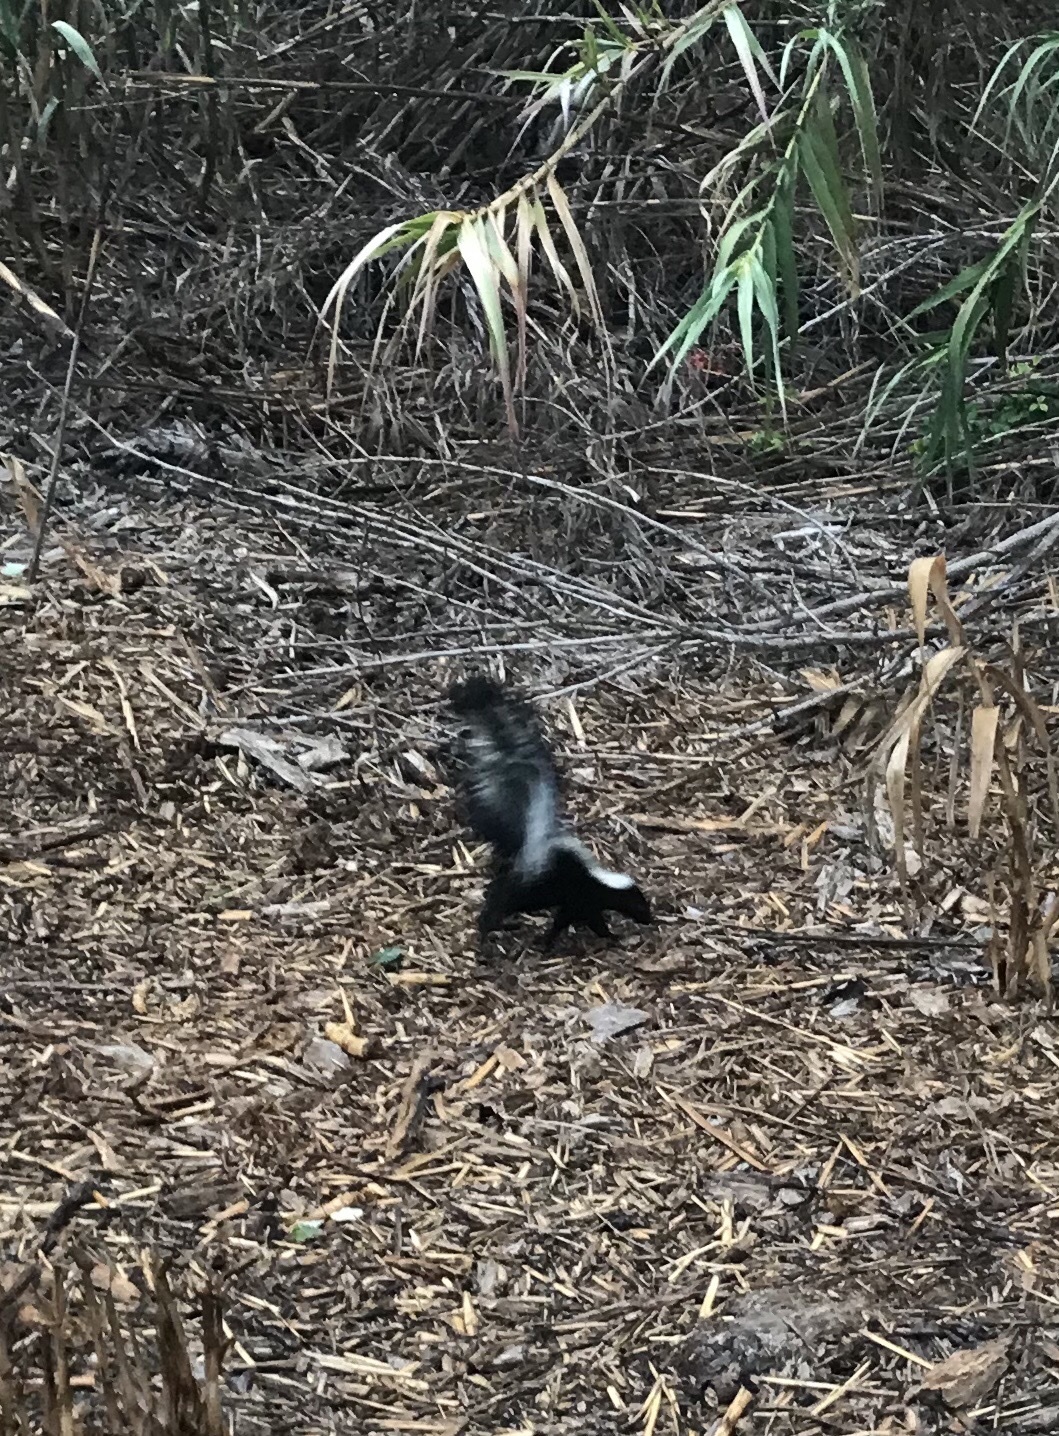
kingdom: Animalia
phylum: Chordata
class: Mammalia
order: Carnivora
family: Mephitidae
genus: Mephitis
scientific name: Mephitis mephitis
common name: Striped skunk
